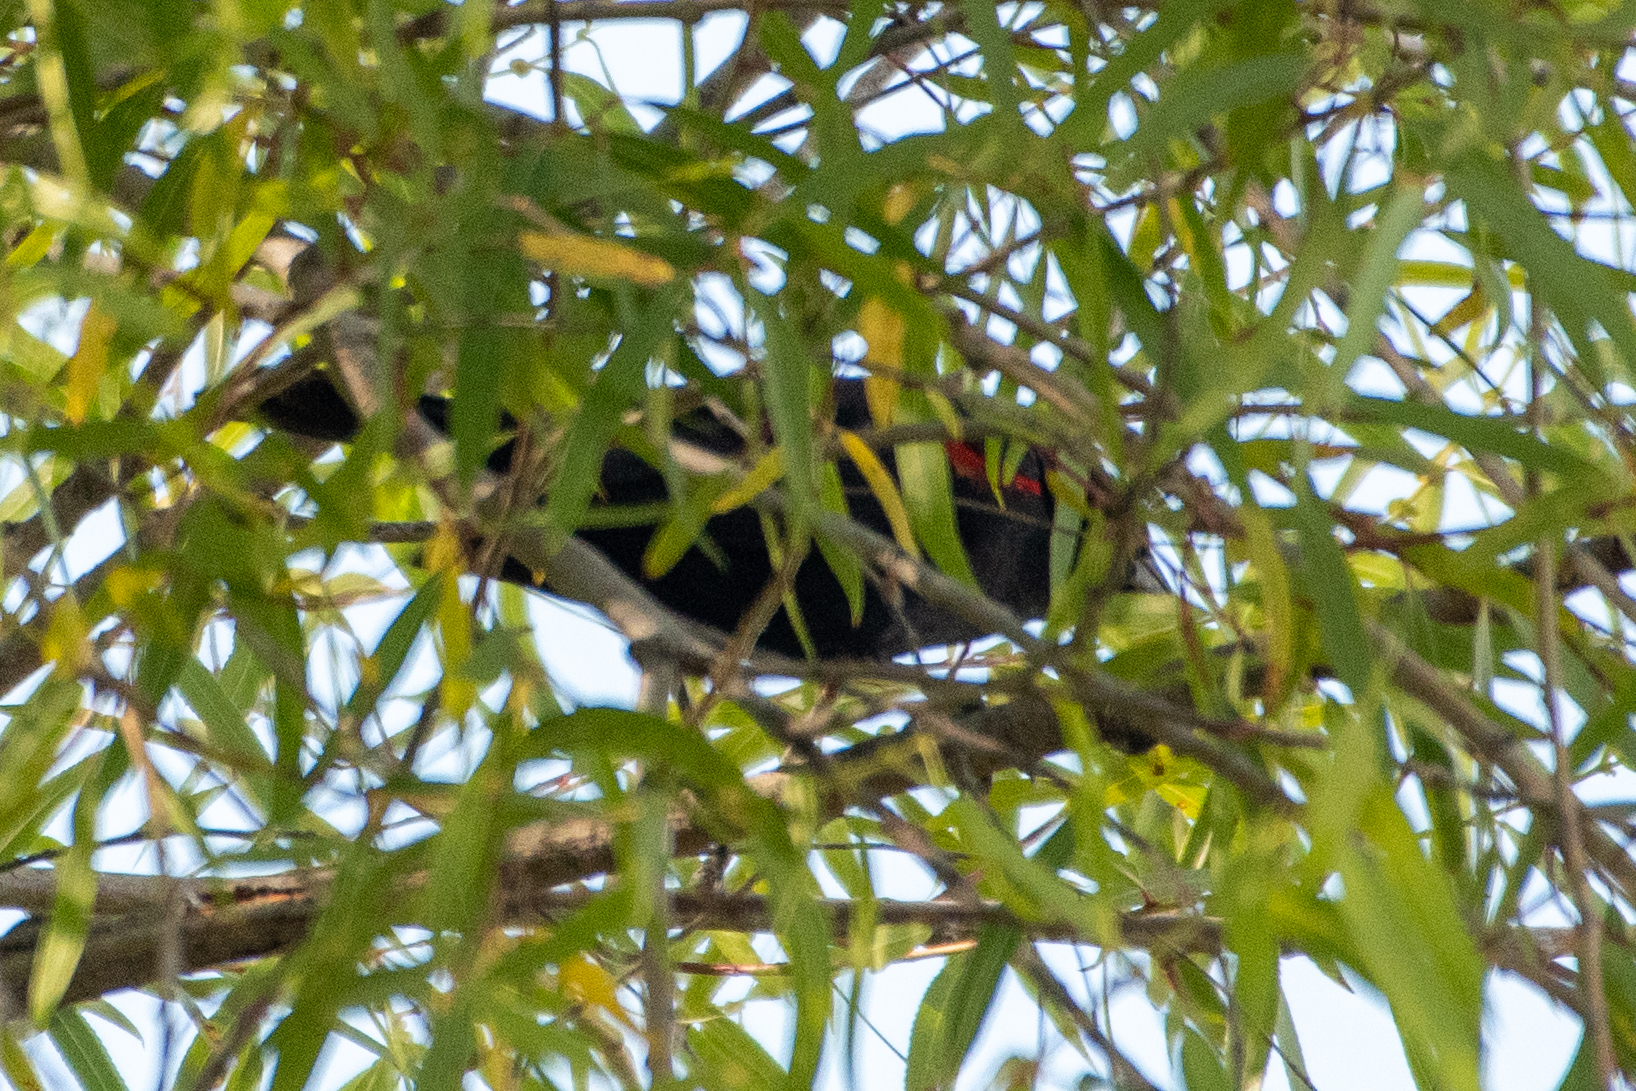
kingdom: Animalia
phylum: Chordata
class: Aves
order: Passeriformes
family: Icteridae
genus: Agelaius
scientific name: Agelaius phoeniceus
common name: Red-winged blackbird
